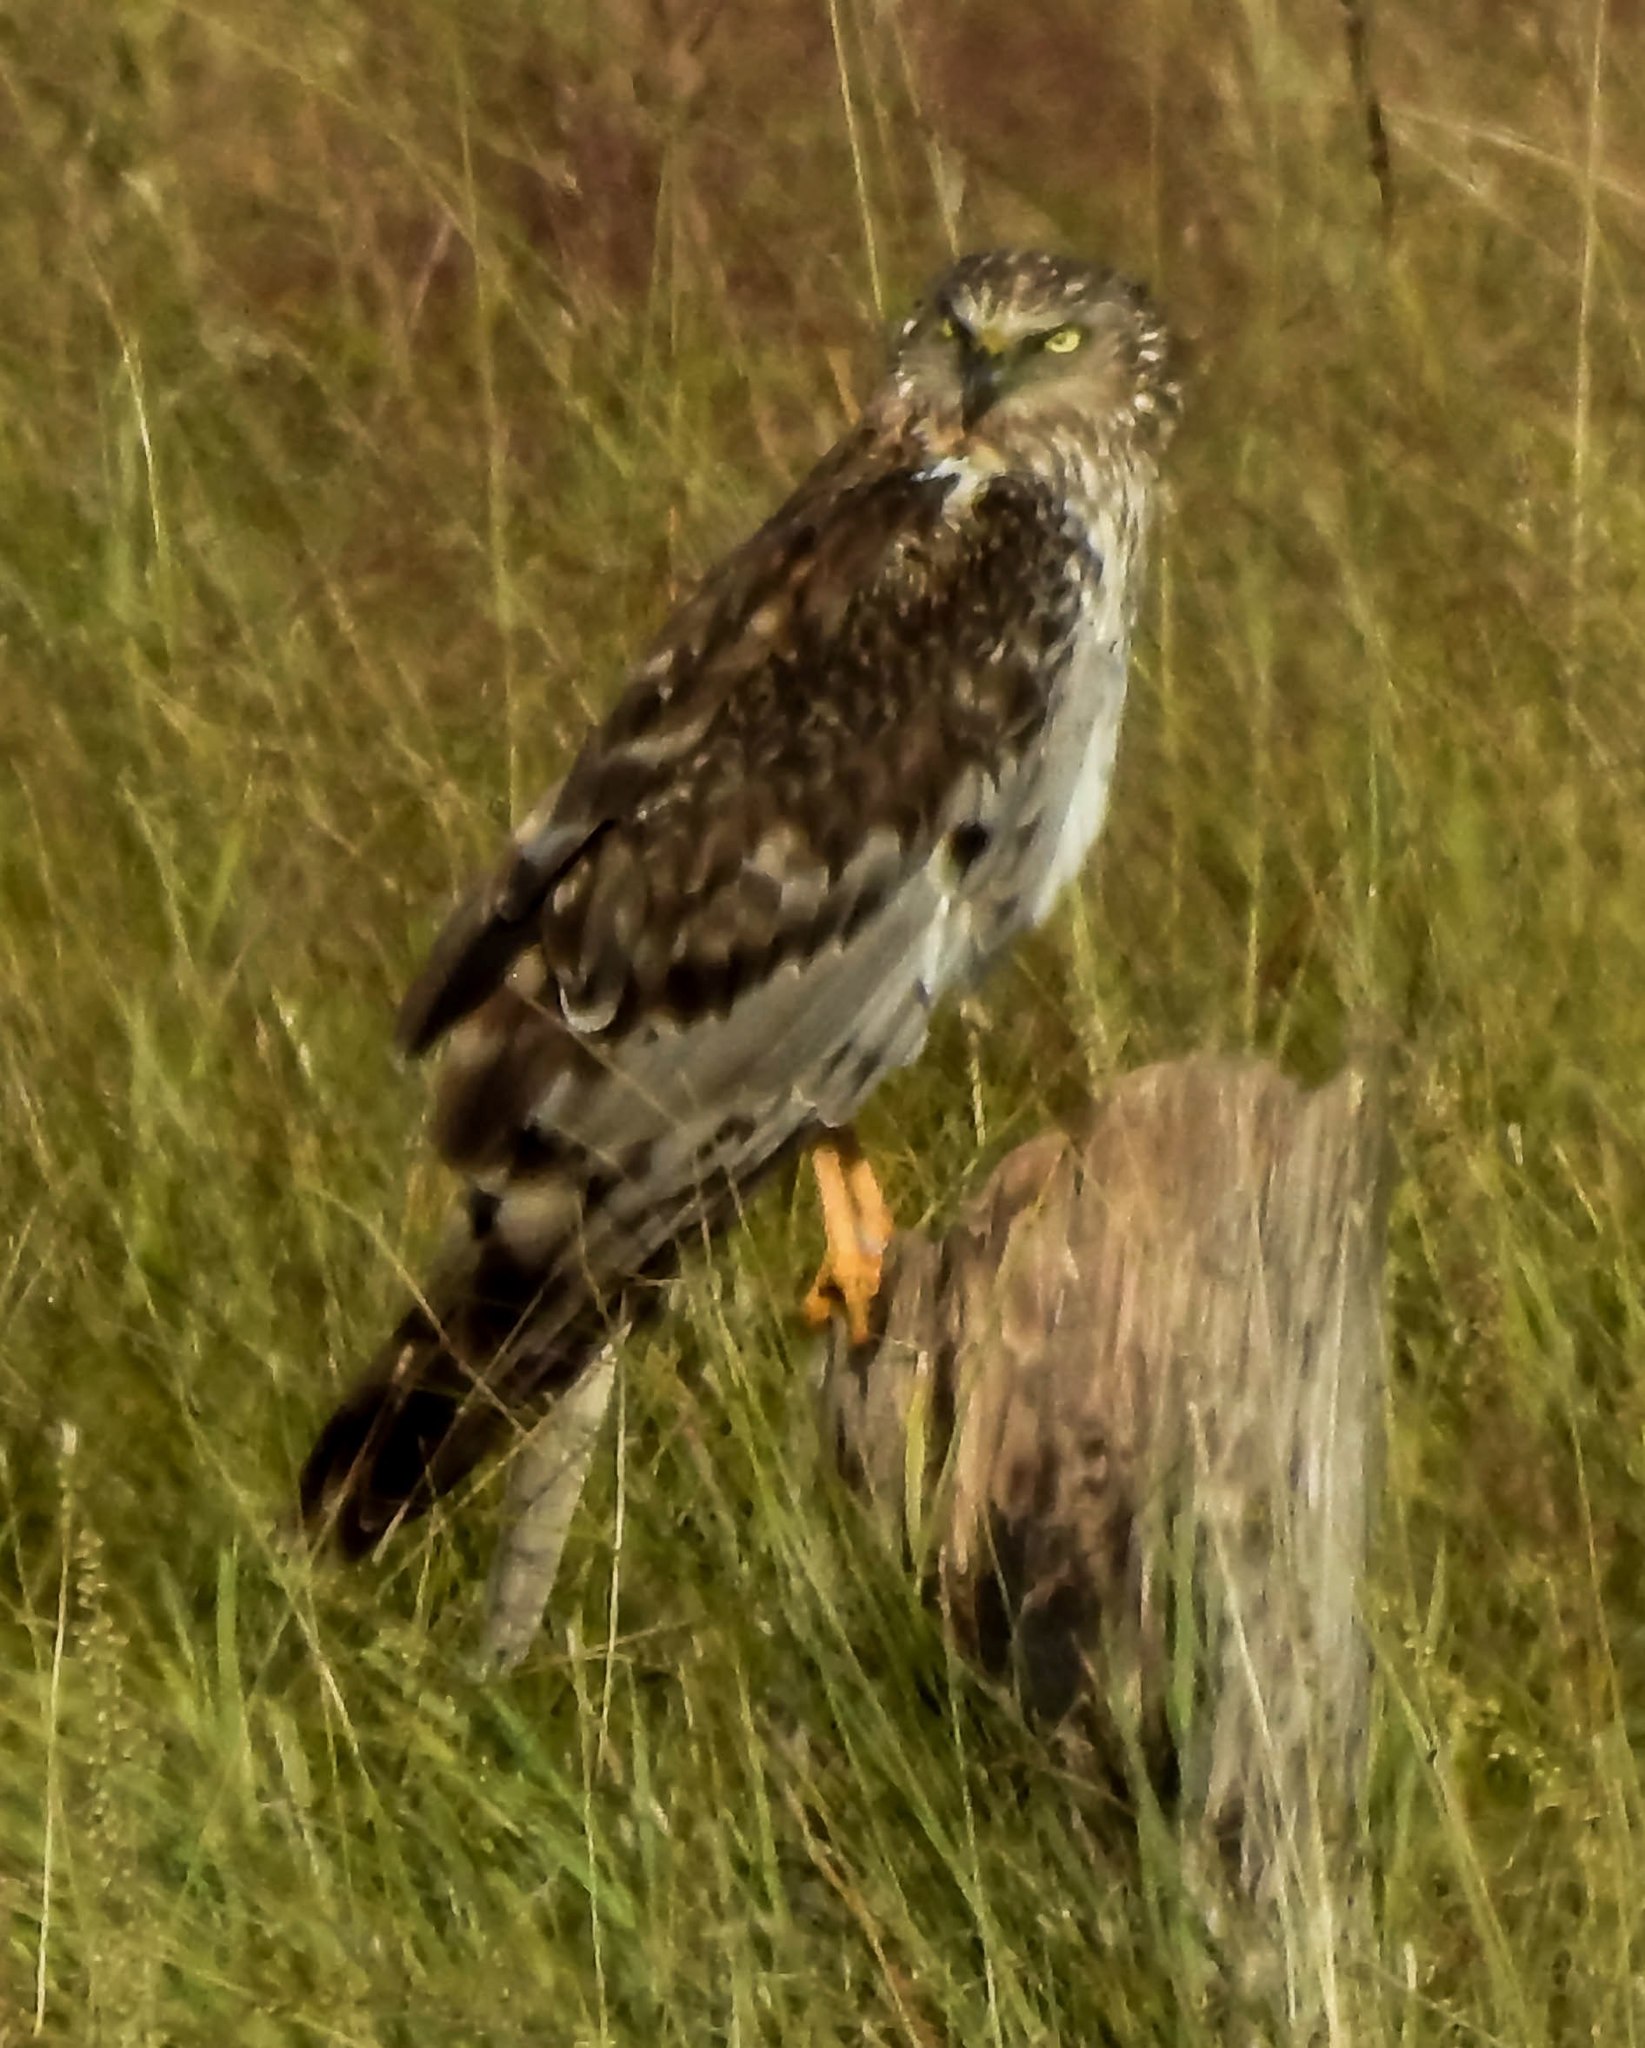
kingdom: Animalia
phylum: Chordata
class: Aves
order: Accipitriformes
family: Accipitridae
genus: Circus
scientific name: Circus cyaneus
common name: Hen harrier
